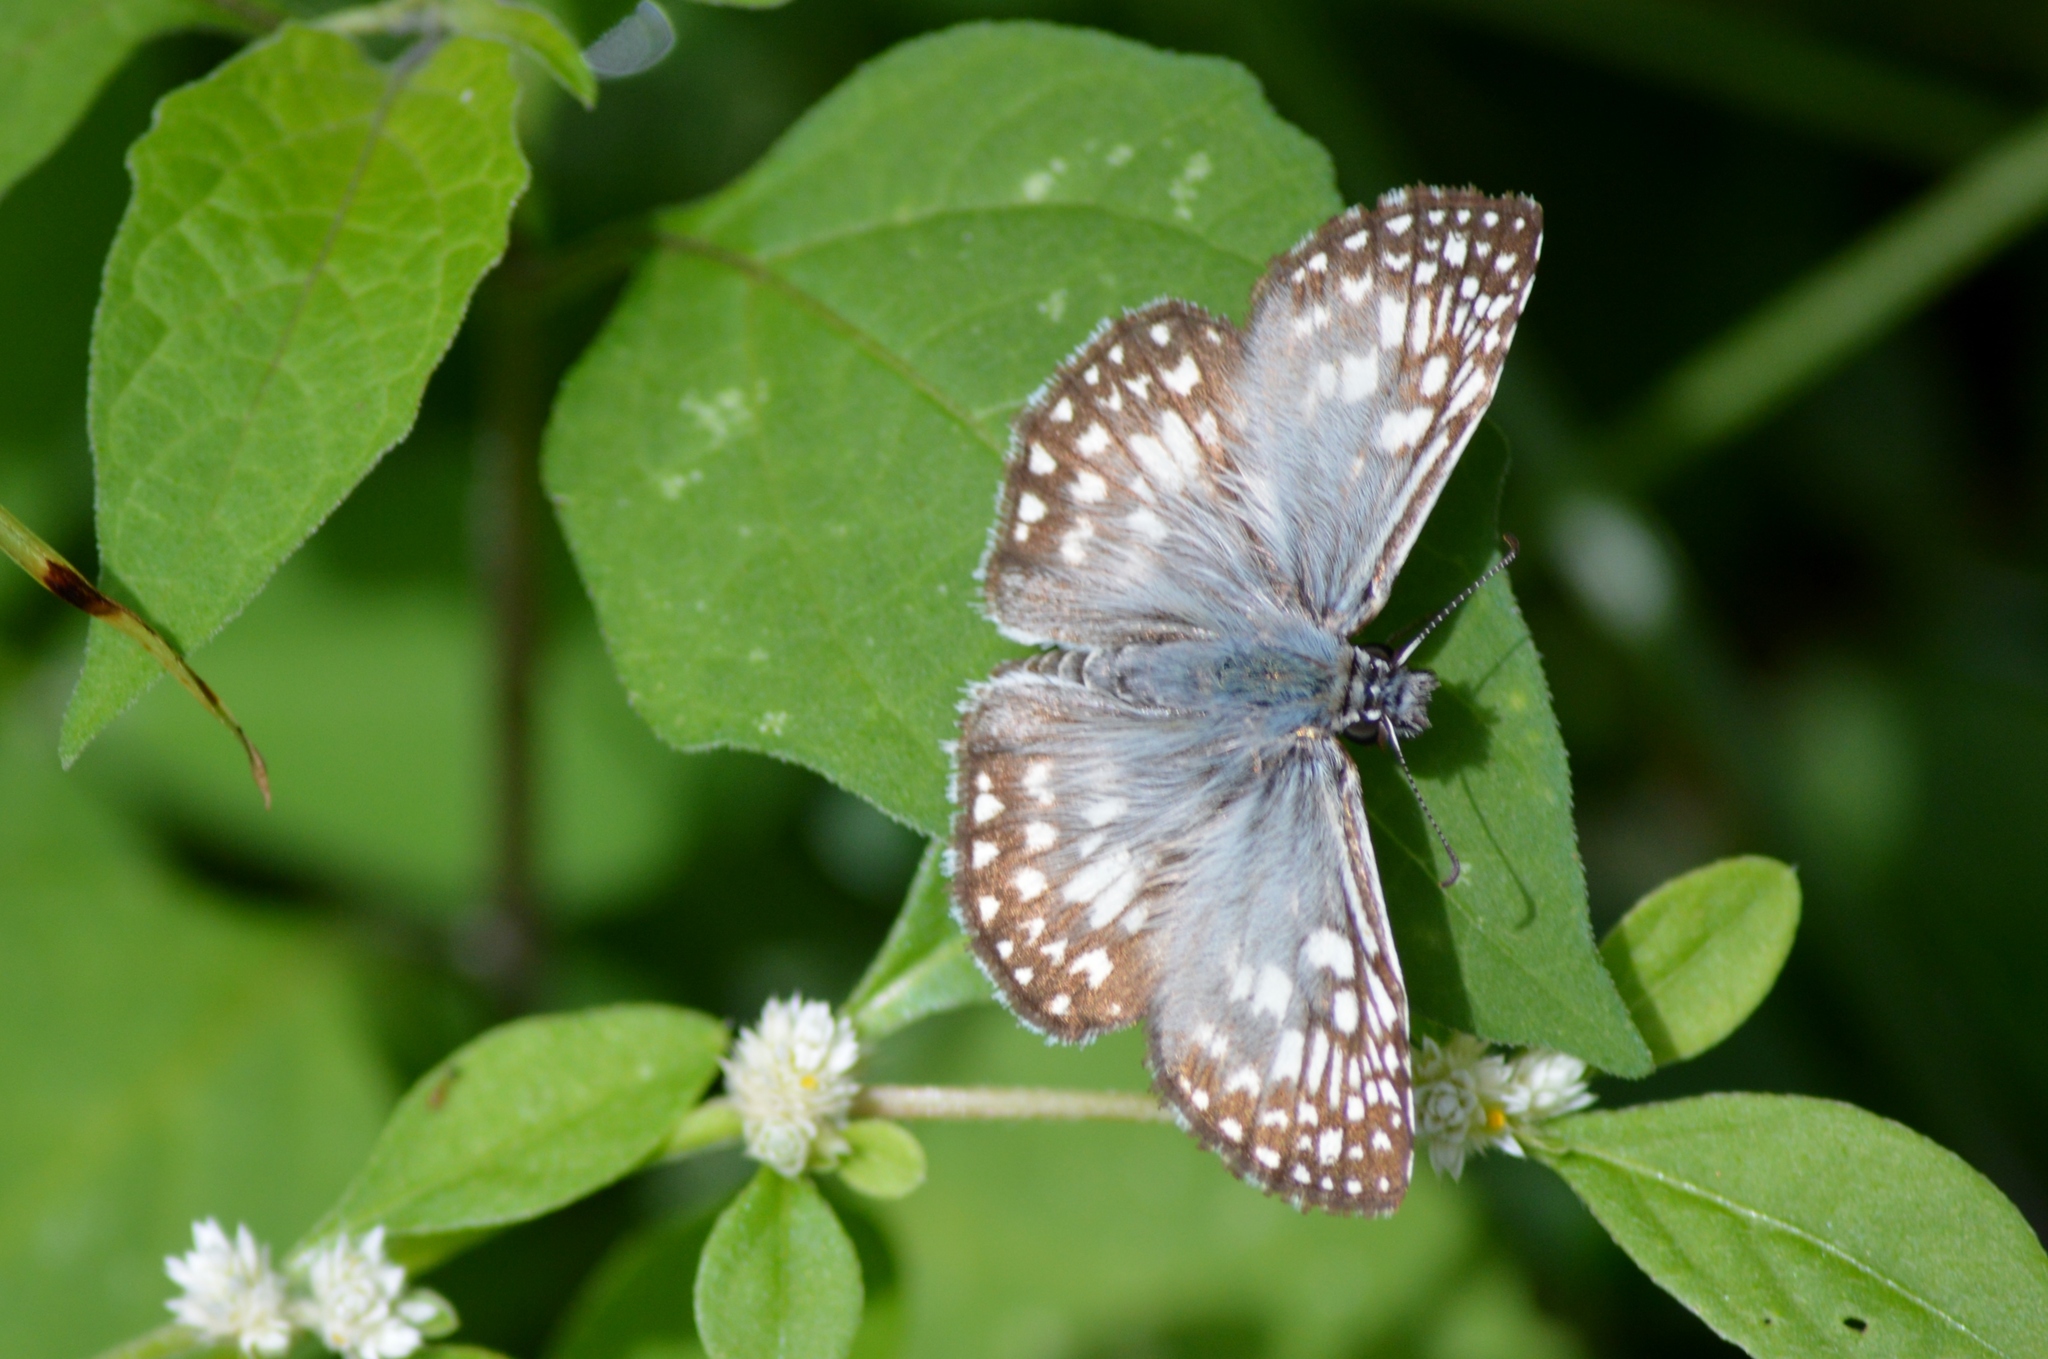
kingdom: Animalia
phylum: Arthropoda
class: Insecta
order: Lepidoptera
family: Hesperiidae
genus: Pyrgus
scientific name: Pyrgus oileus
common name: Tropical checkered-skipper
